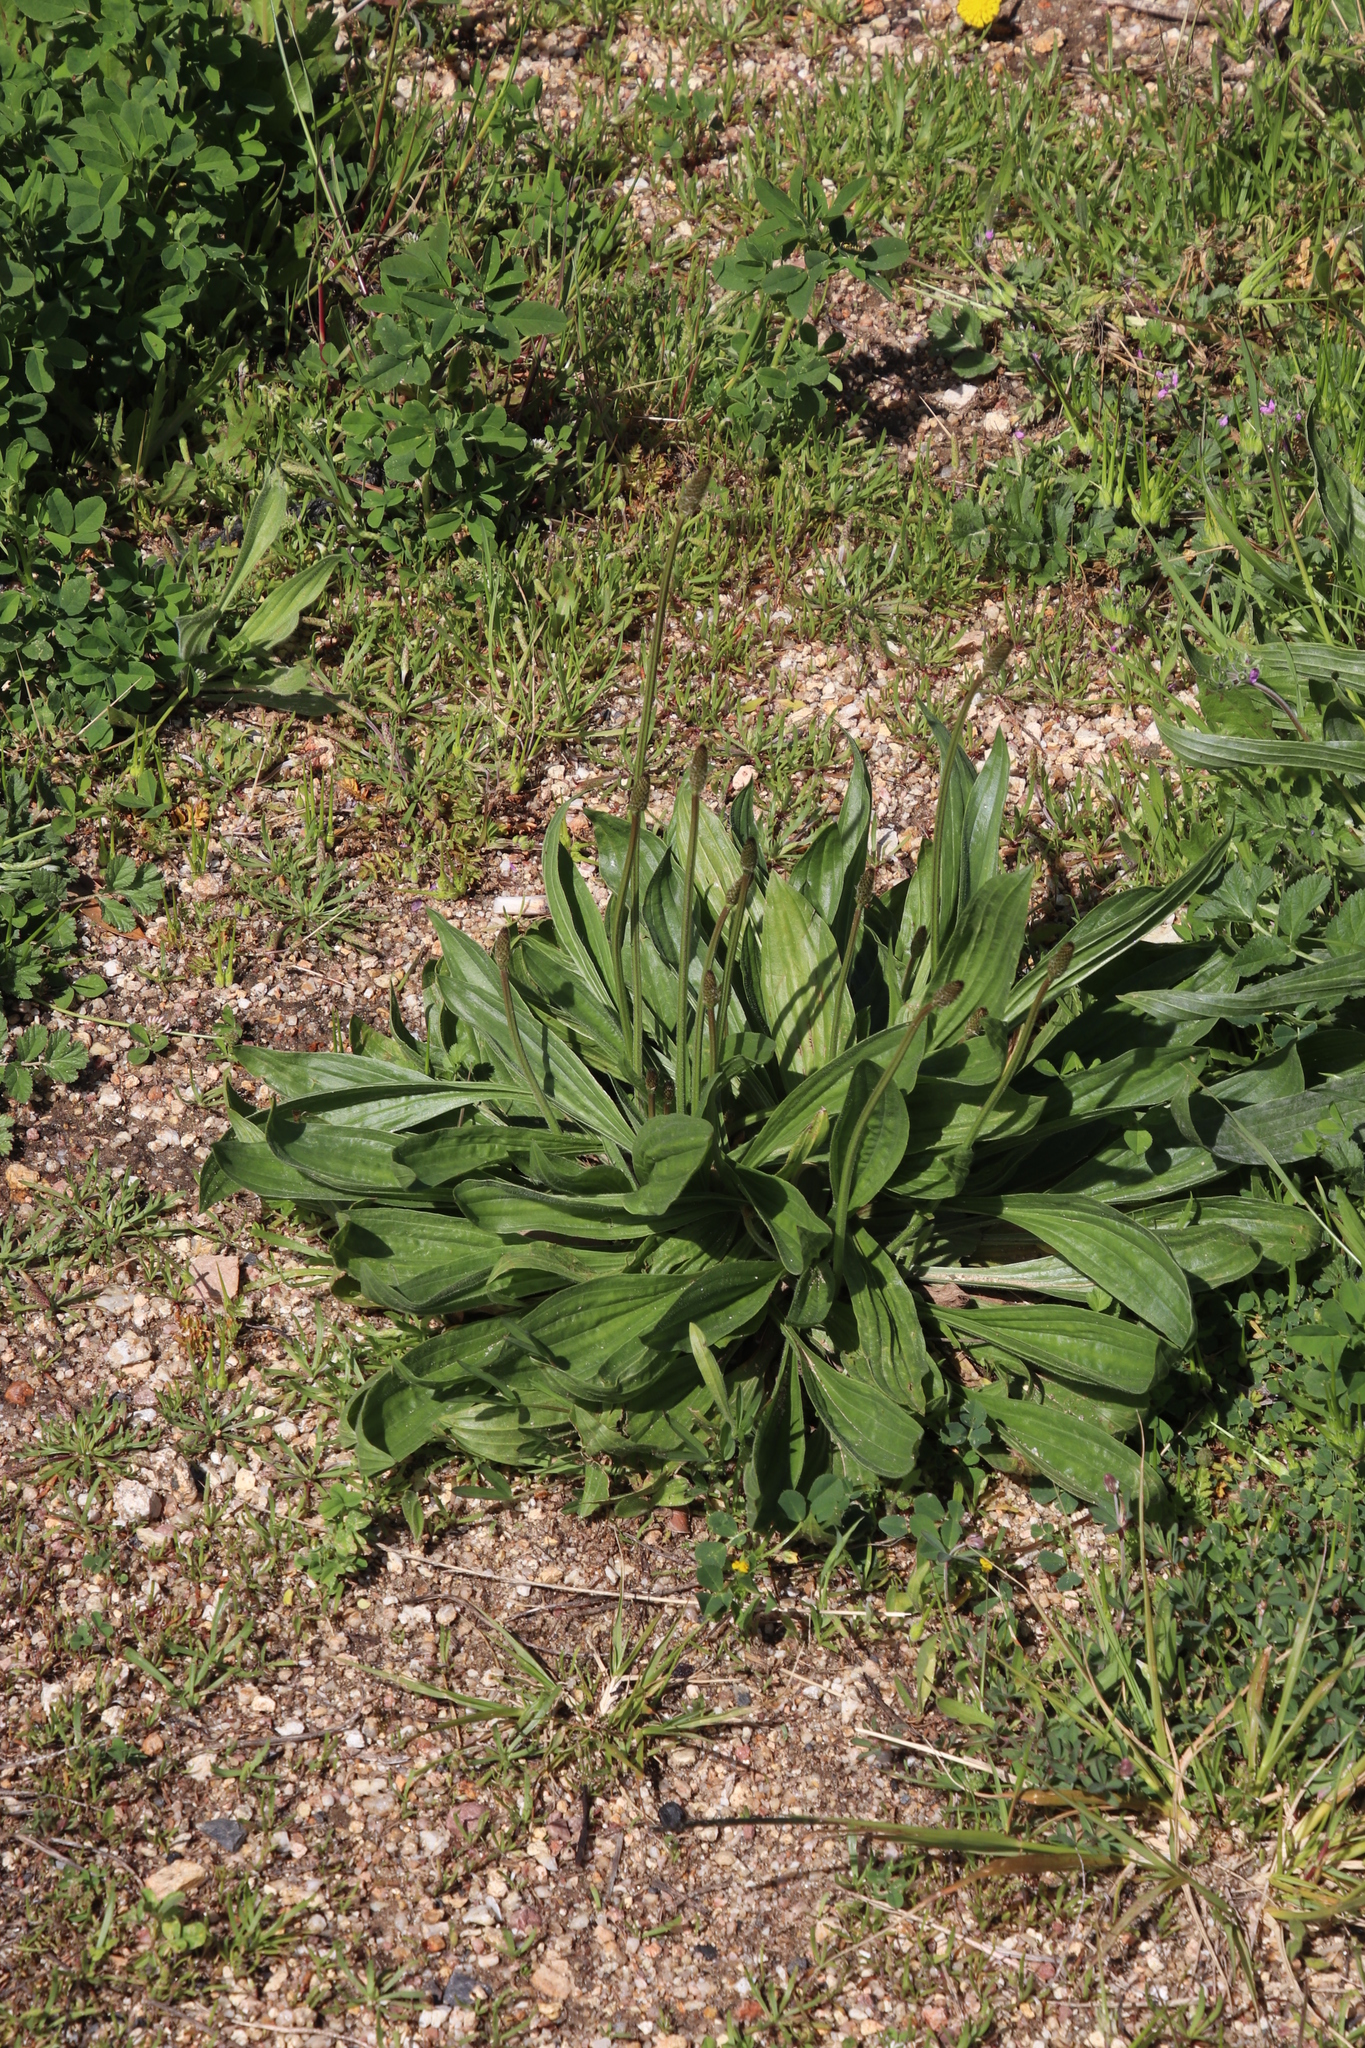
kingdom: Plantae
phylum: Tracheophyta
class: Magnoliopsida
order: Lamiales
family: Plantaginaceae
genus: Plantago
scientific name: Plantago lanceolata
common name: Ribwort plantain
